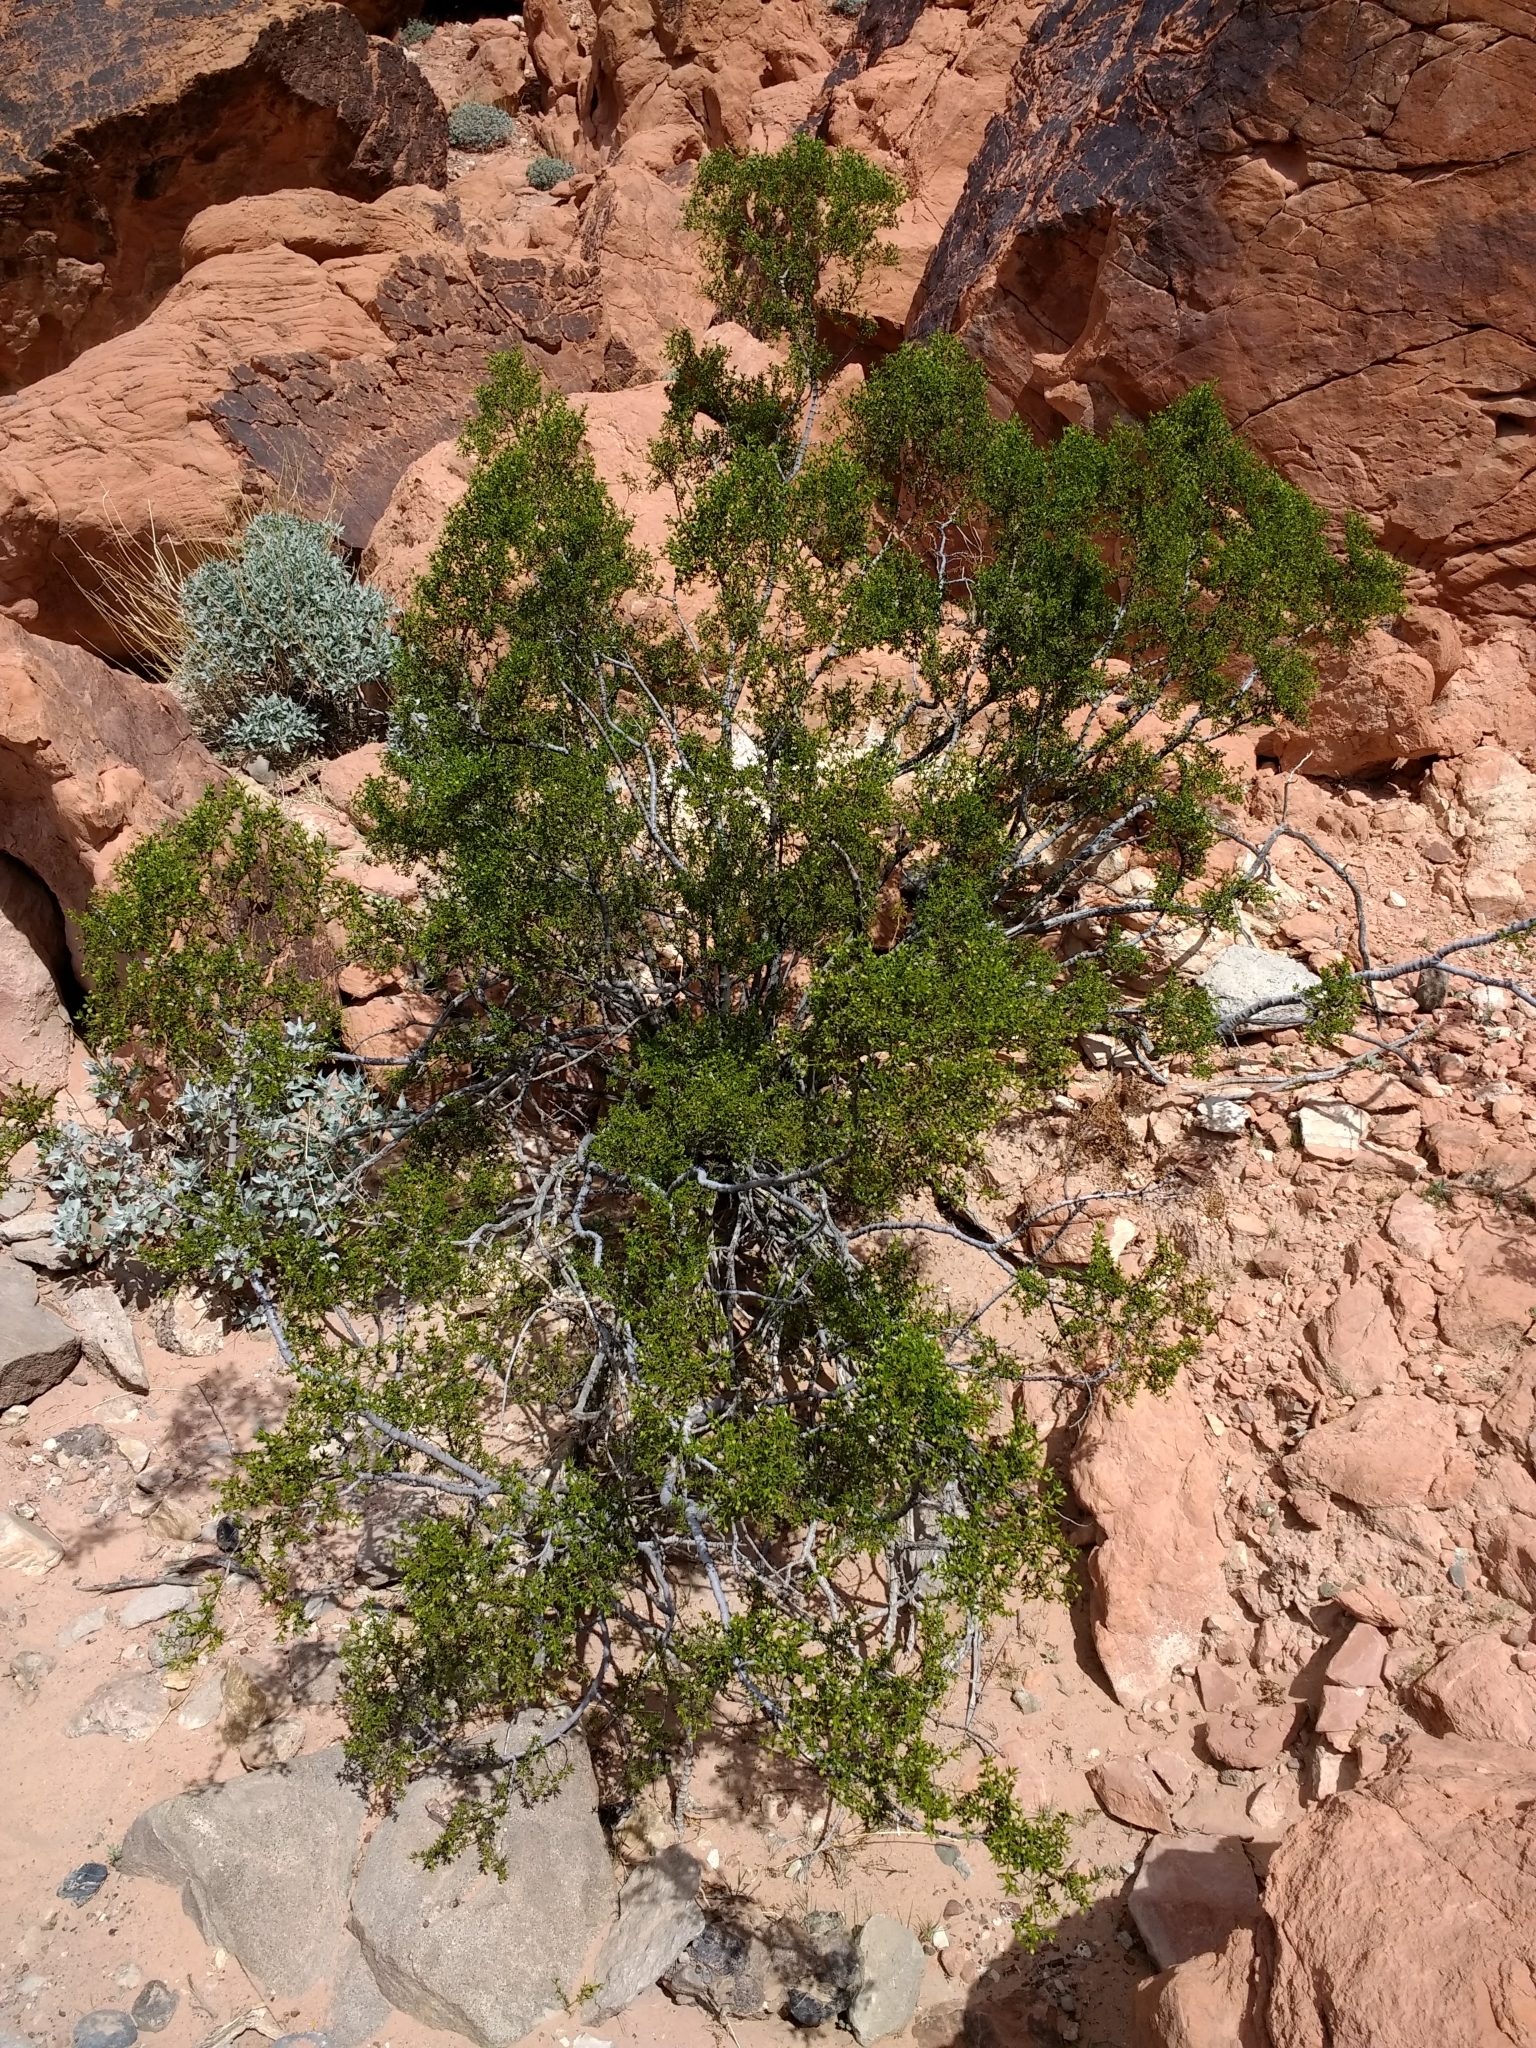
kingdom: Plantae
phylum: Tracheophyta
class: Magnoliopsida
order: Zygophyllales
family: Zygophyllaceae
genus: Larrea
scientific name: Larrea tridentata
